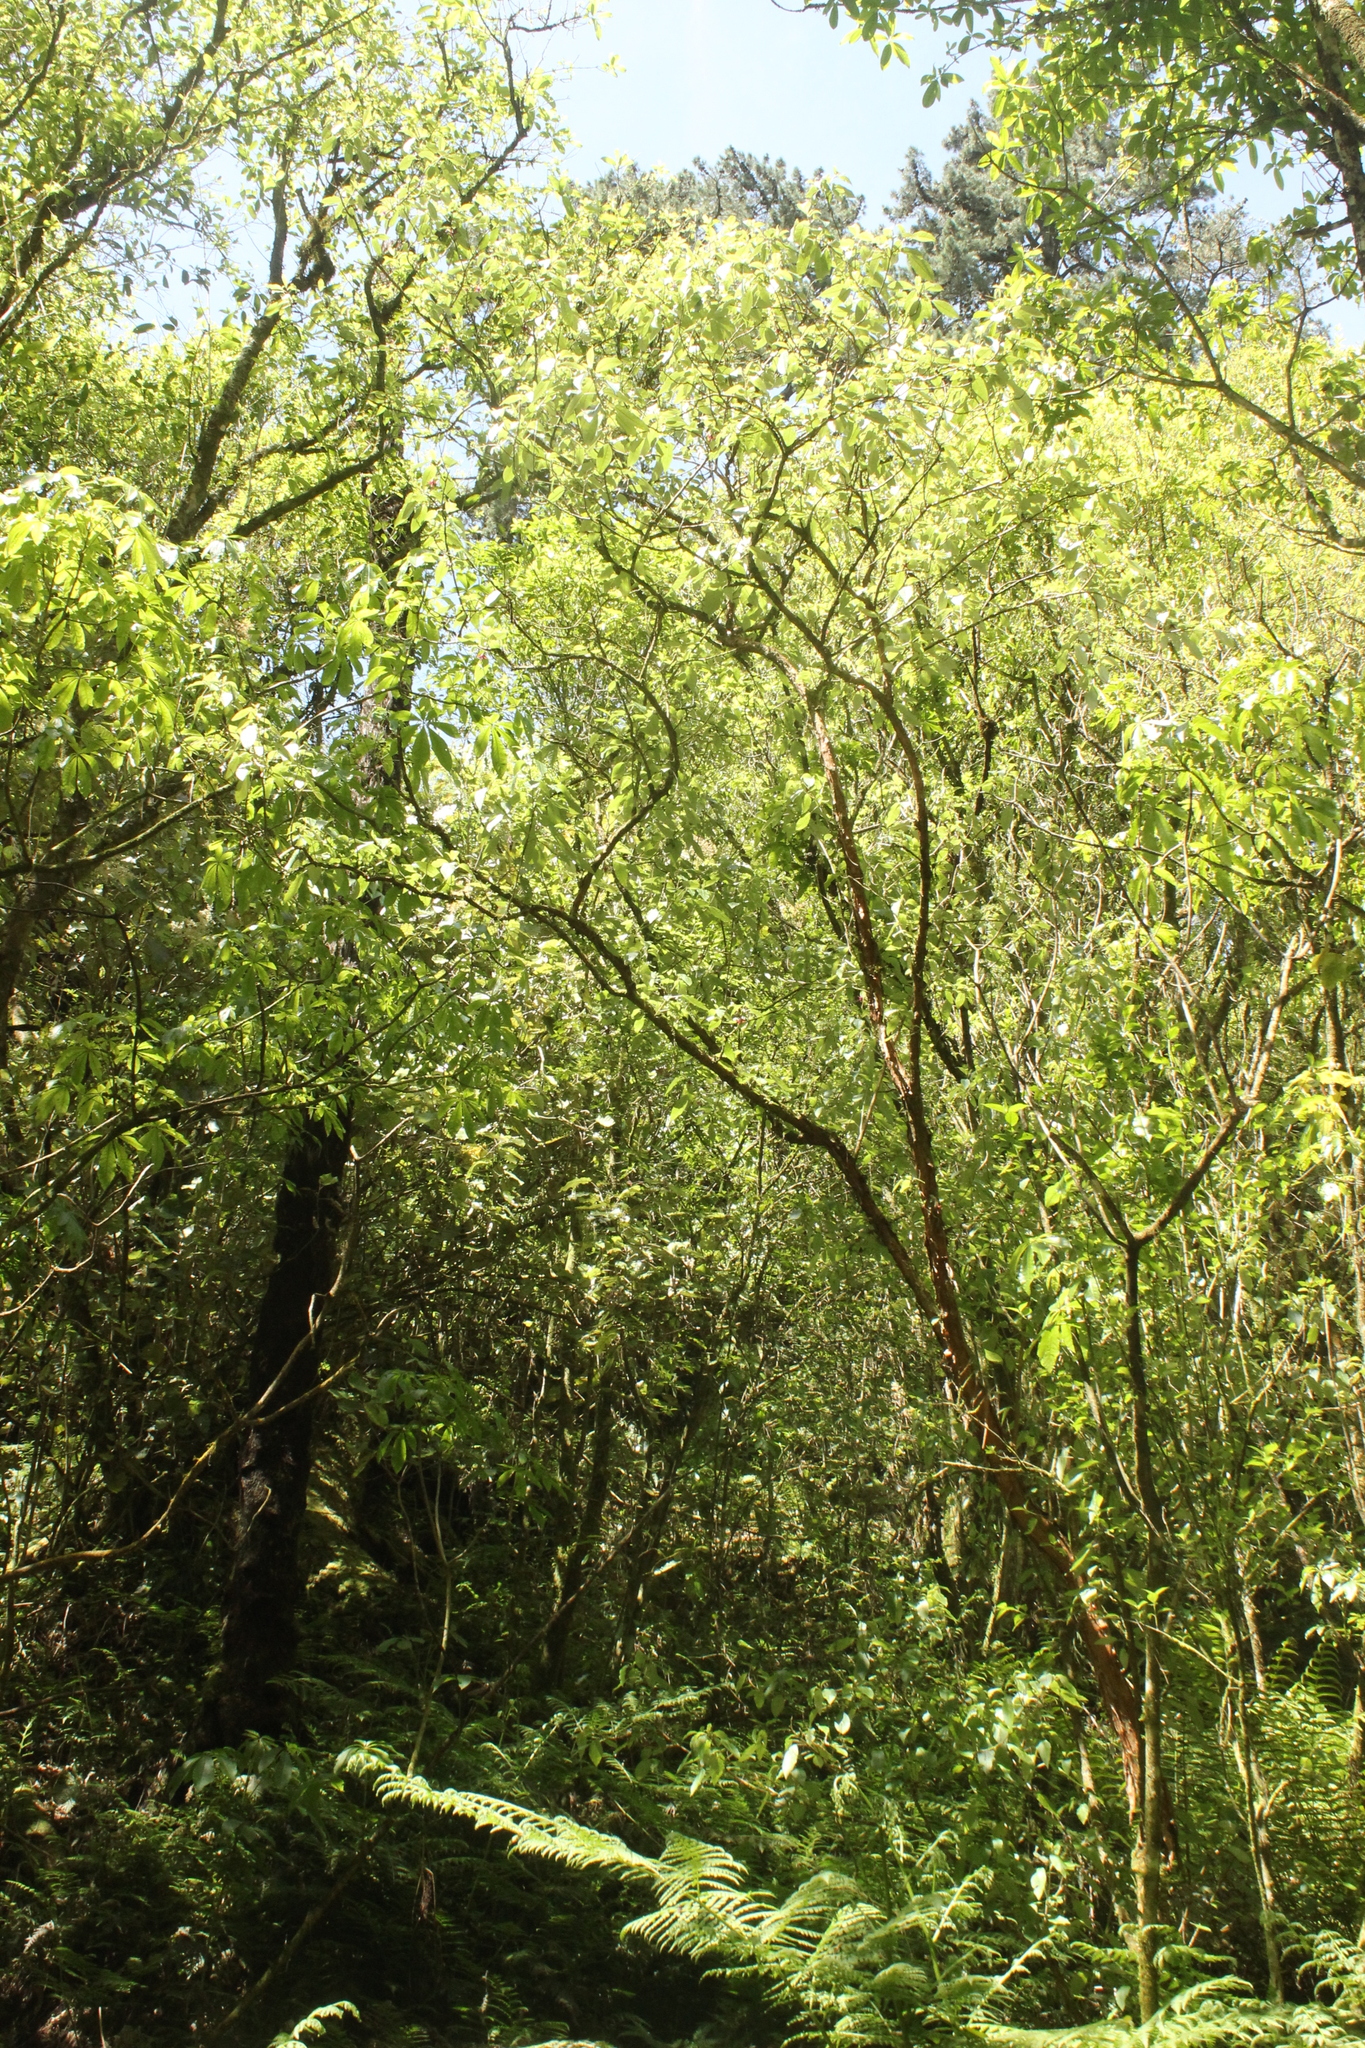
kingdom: Plantae
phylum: Tracheophyta
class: Magnoliopsida
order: Myrtales
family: Onagraceae
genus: Fuchsia
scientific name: Fuchsia excorticata
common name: Tree fuchsia
